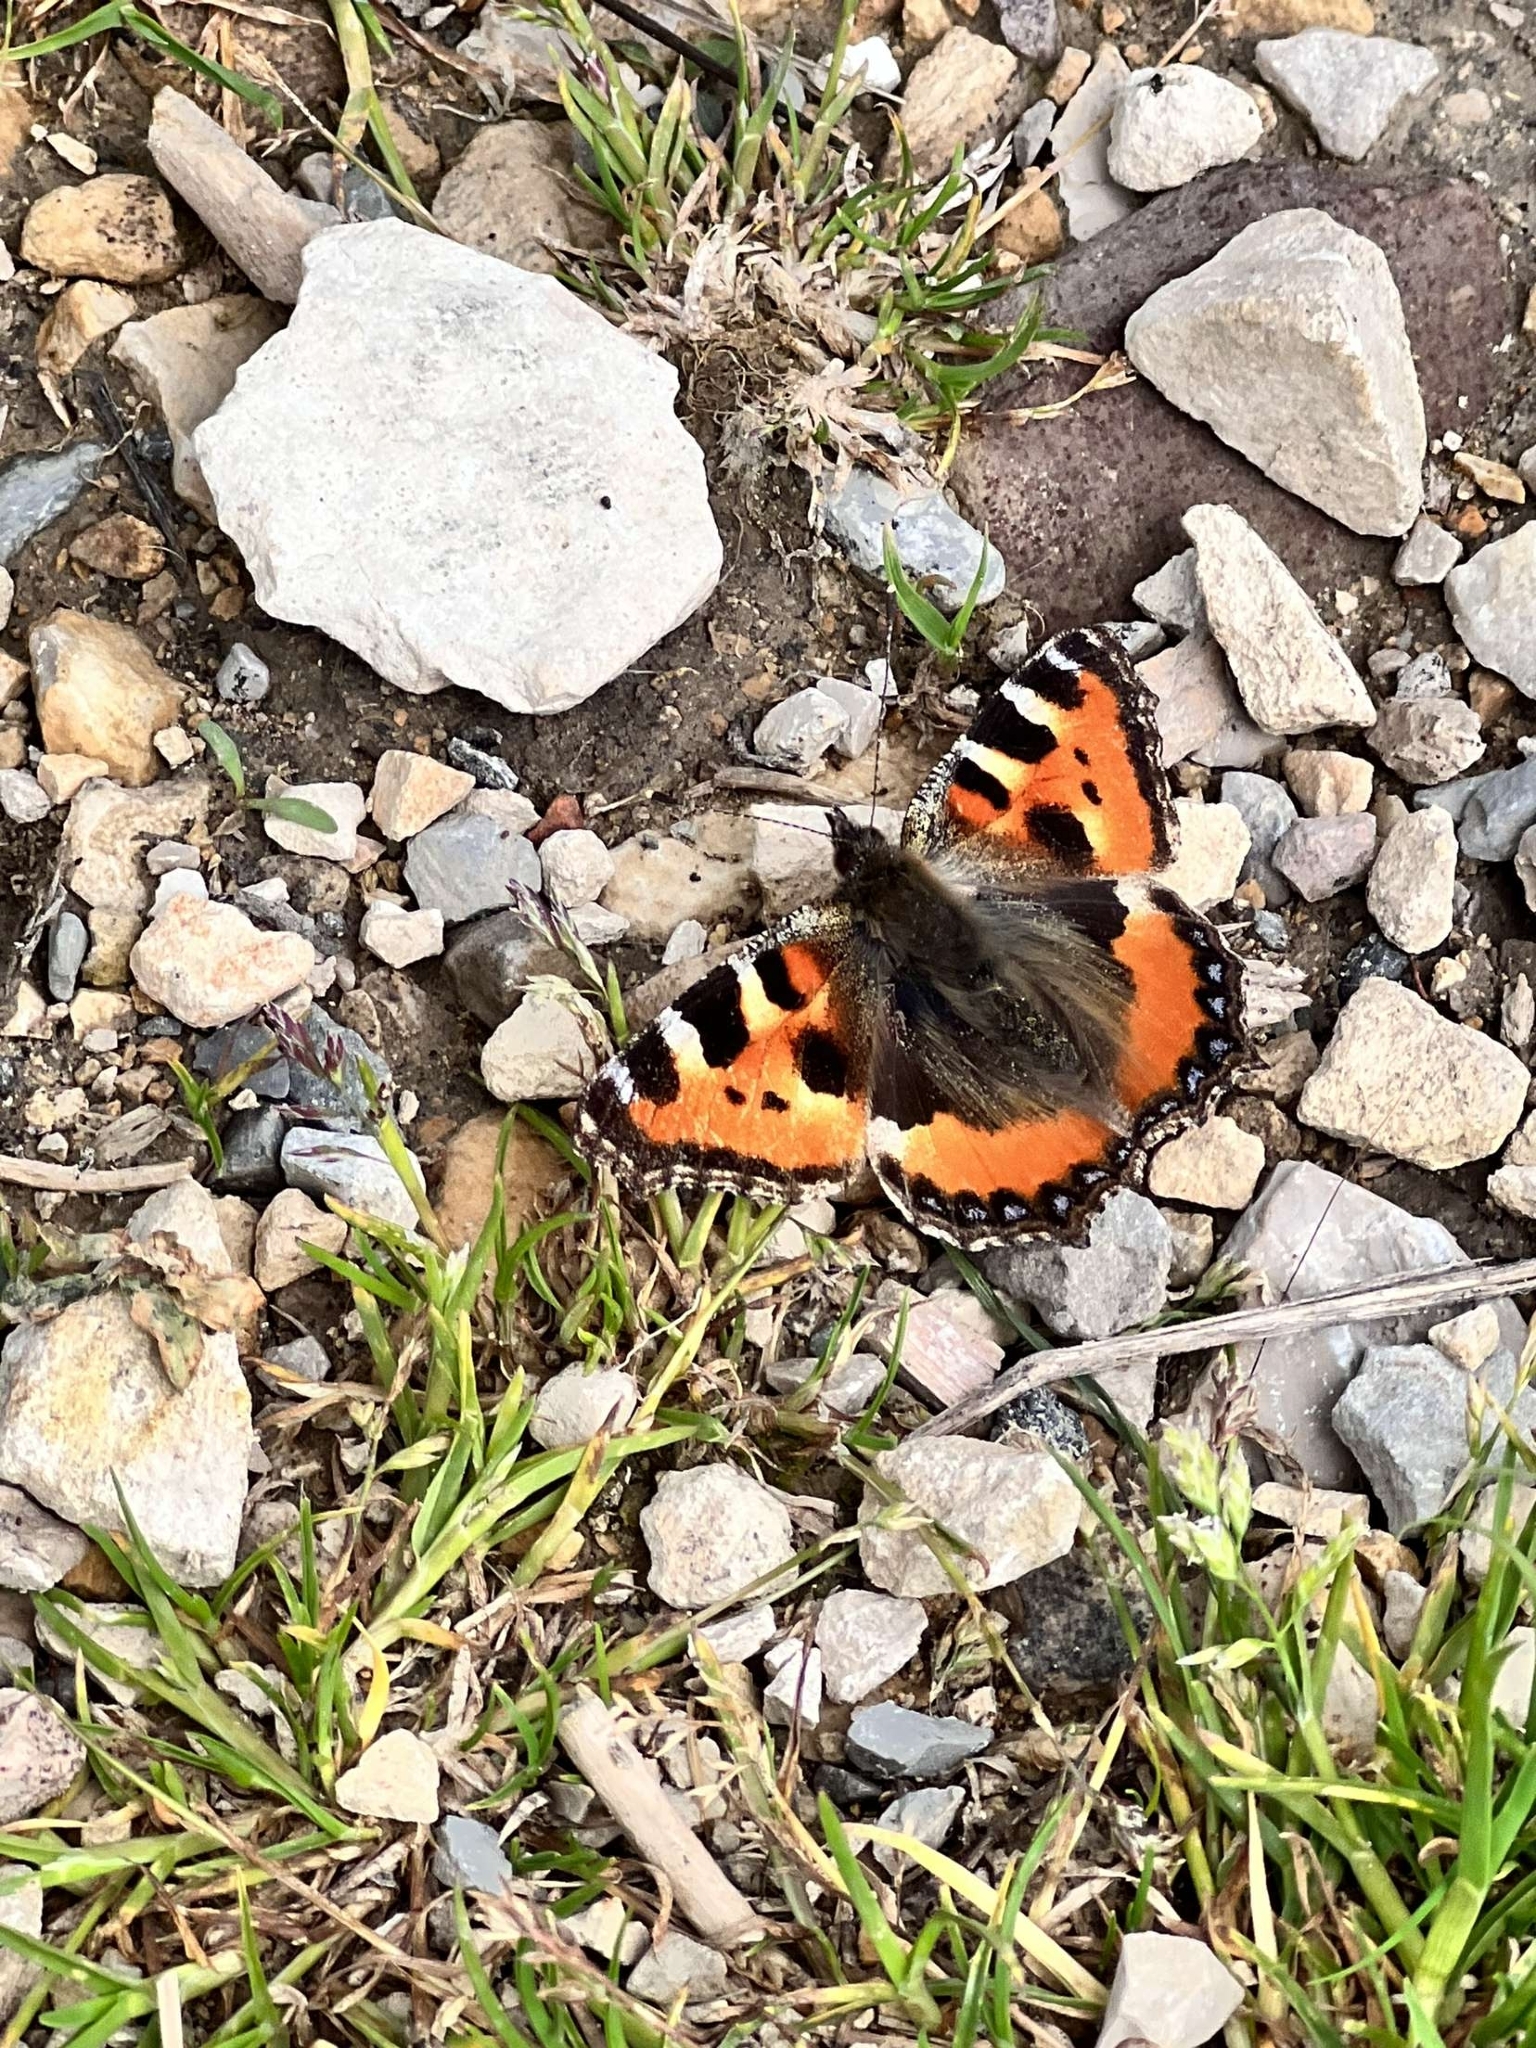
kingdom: Animalia
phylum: Arthropoda
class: Insecta
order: Lepidoptera
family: Nymphalidae
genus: Aglais
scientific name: Aglais urticae
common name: Small tortoiseshell
